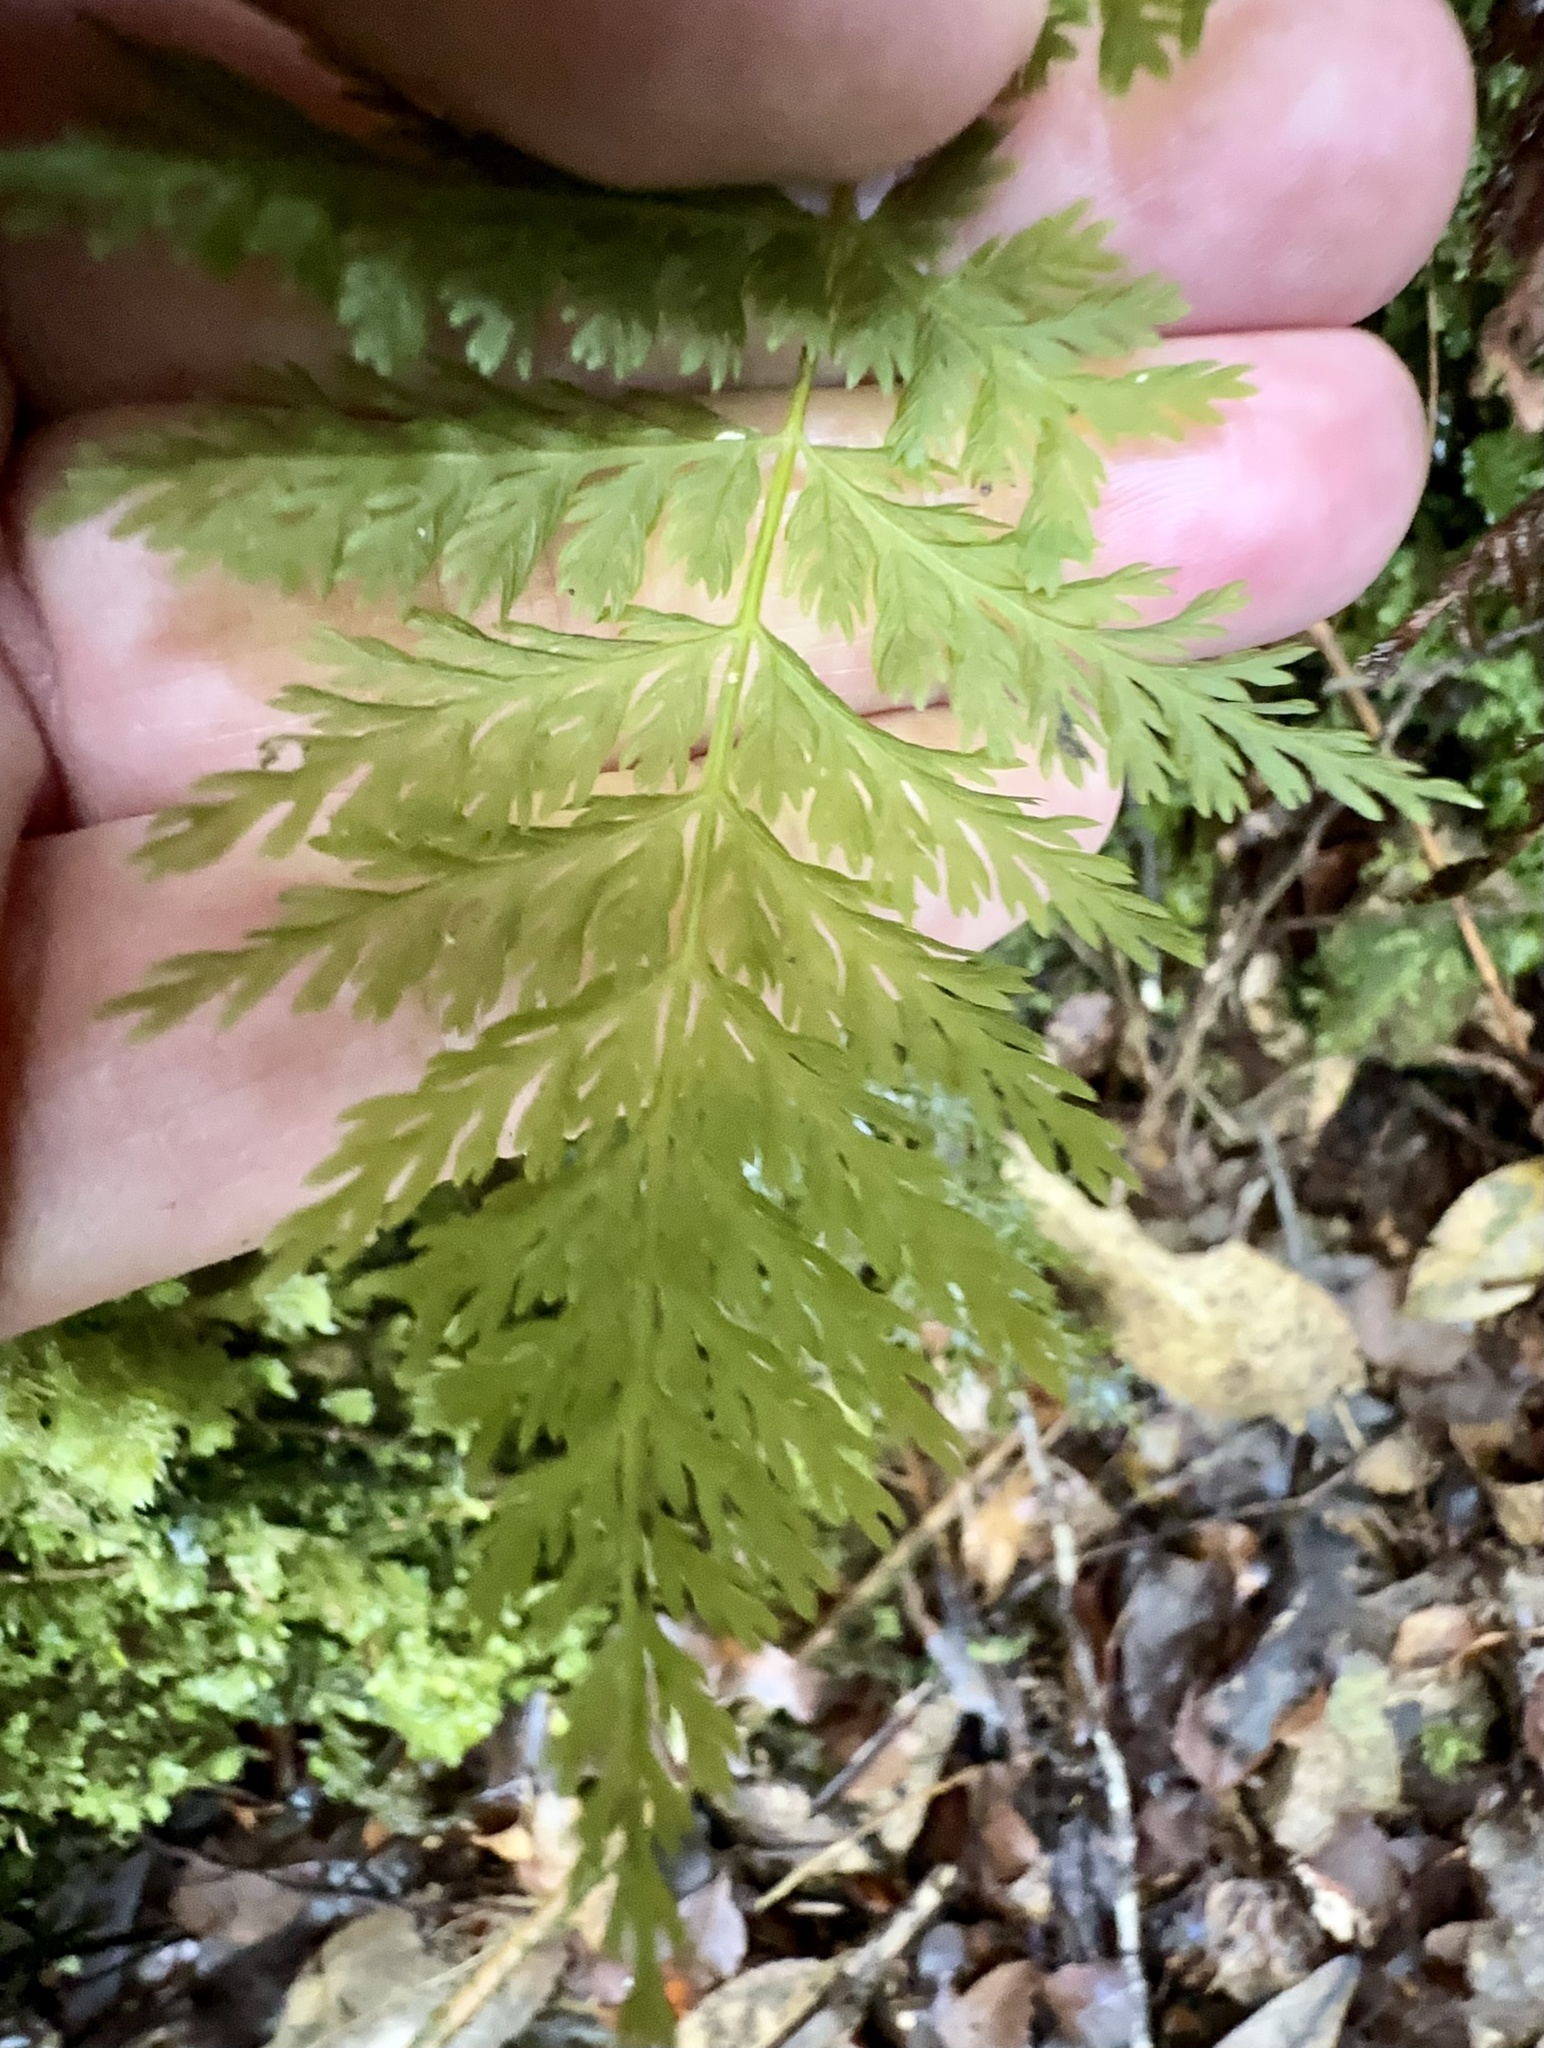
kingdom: Plantae
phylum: Tracheophyta
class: Polypodiopsida
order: Osmundales
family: Osmundaceae
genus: Leptopteris
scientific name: Leptopteris hymenophylloides
